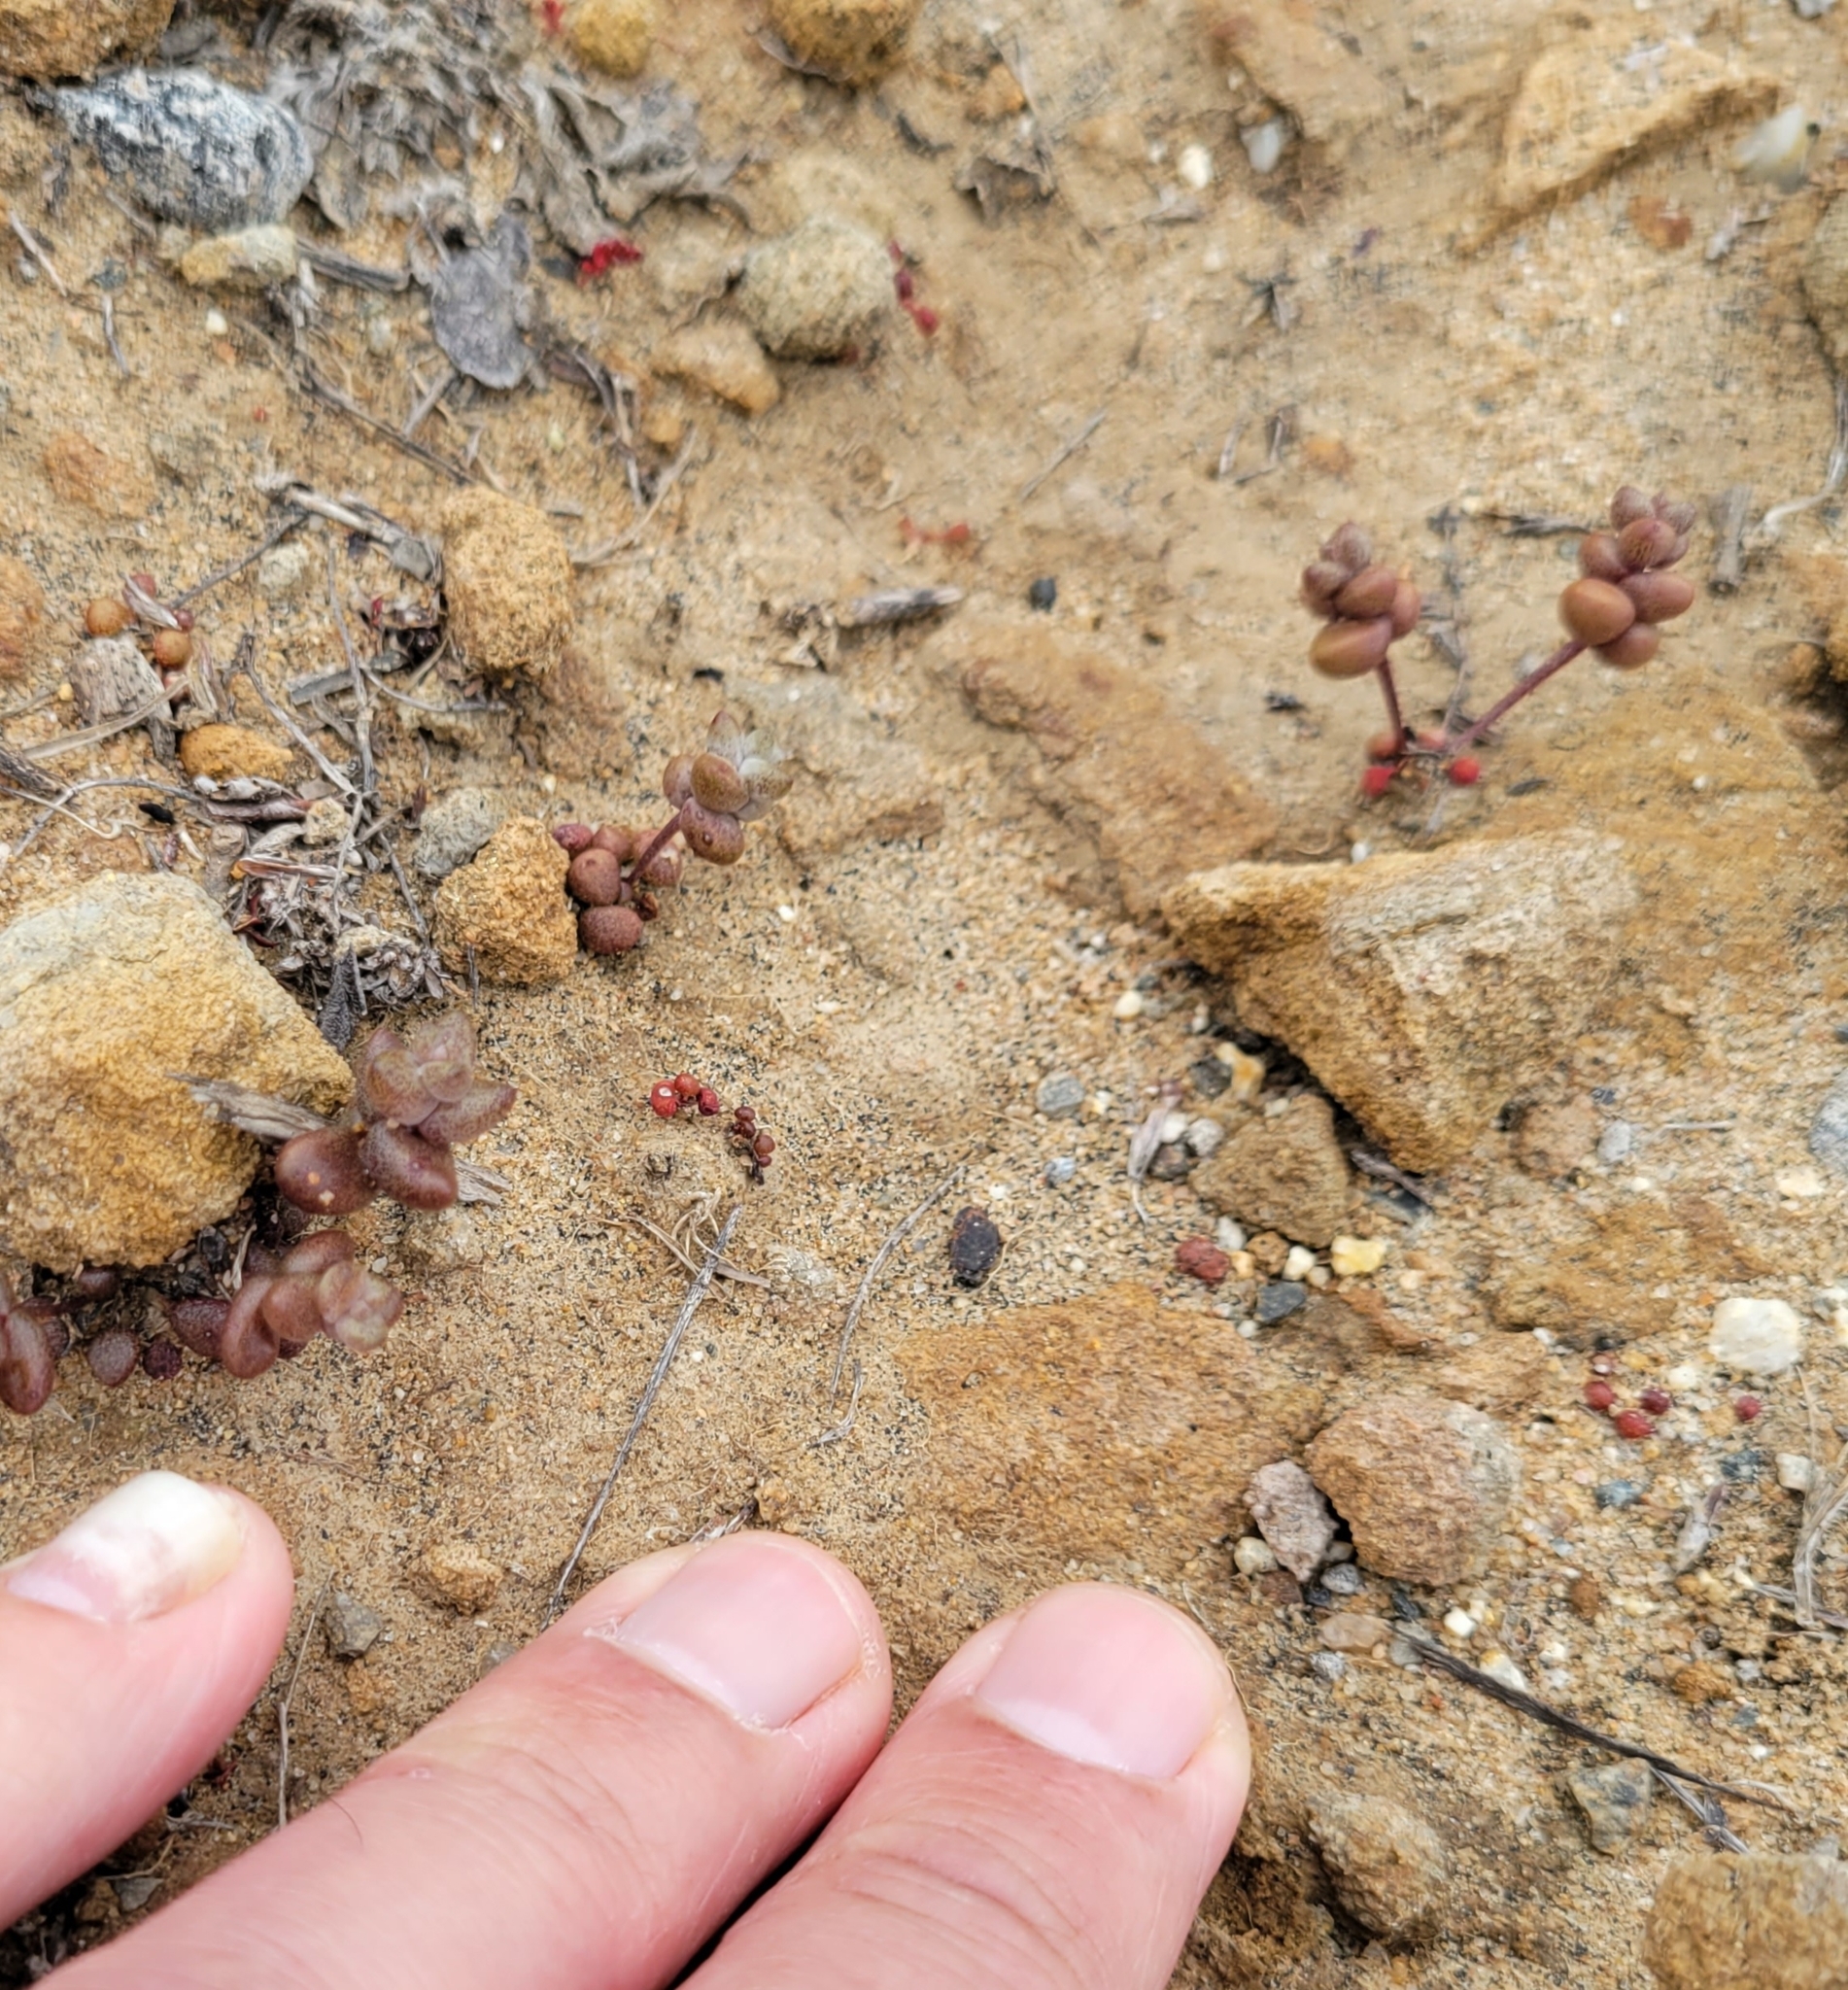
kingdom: Plantae
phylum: Tracheophyta
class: Magnoliopsida
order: Saxifragales
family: Crassulaceae
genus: Dudleya
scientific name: Dudleya blochmaniae
